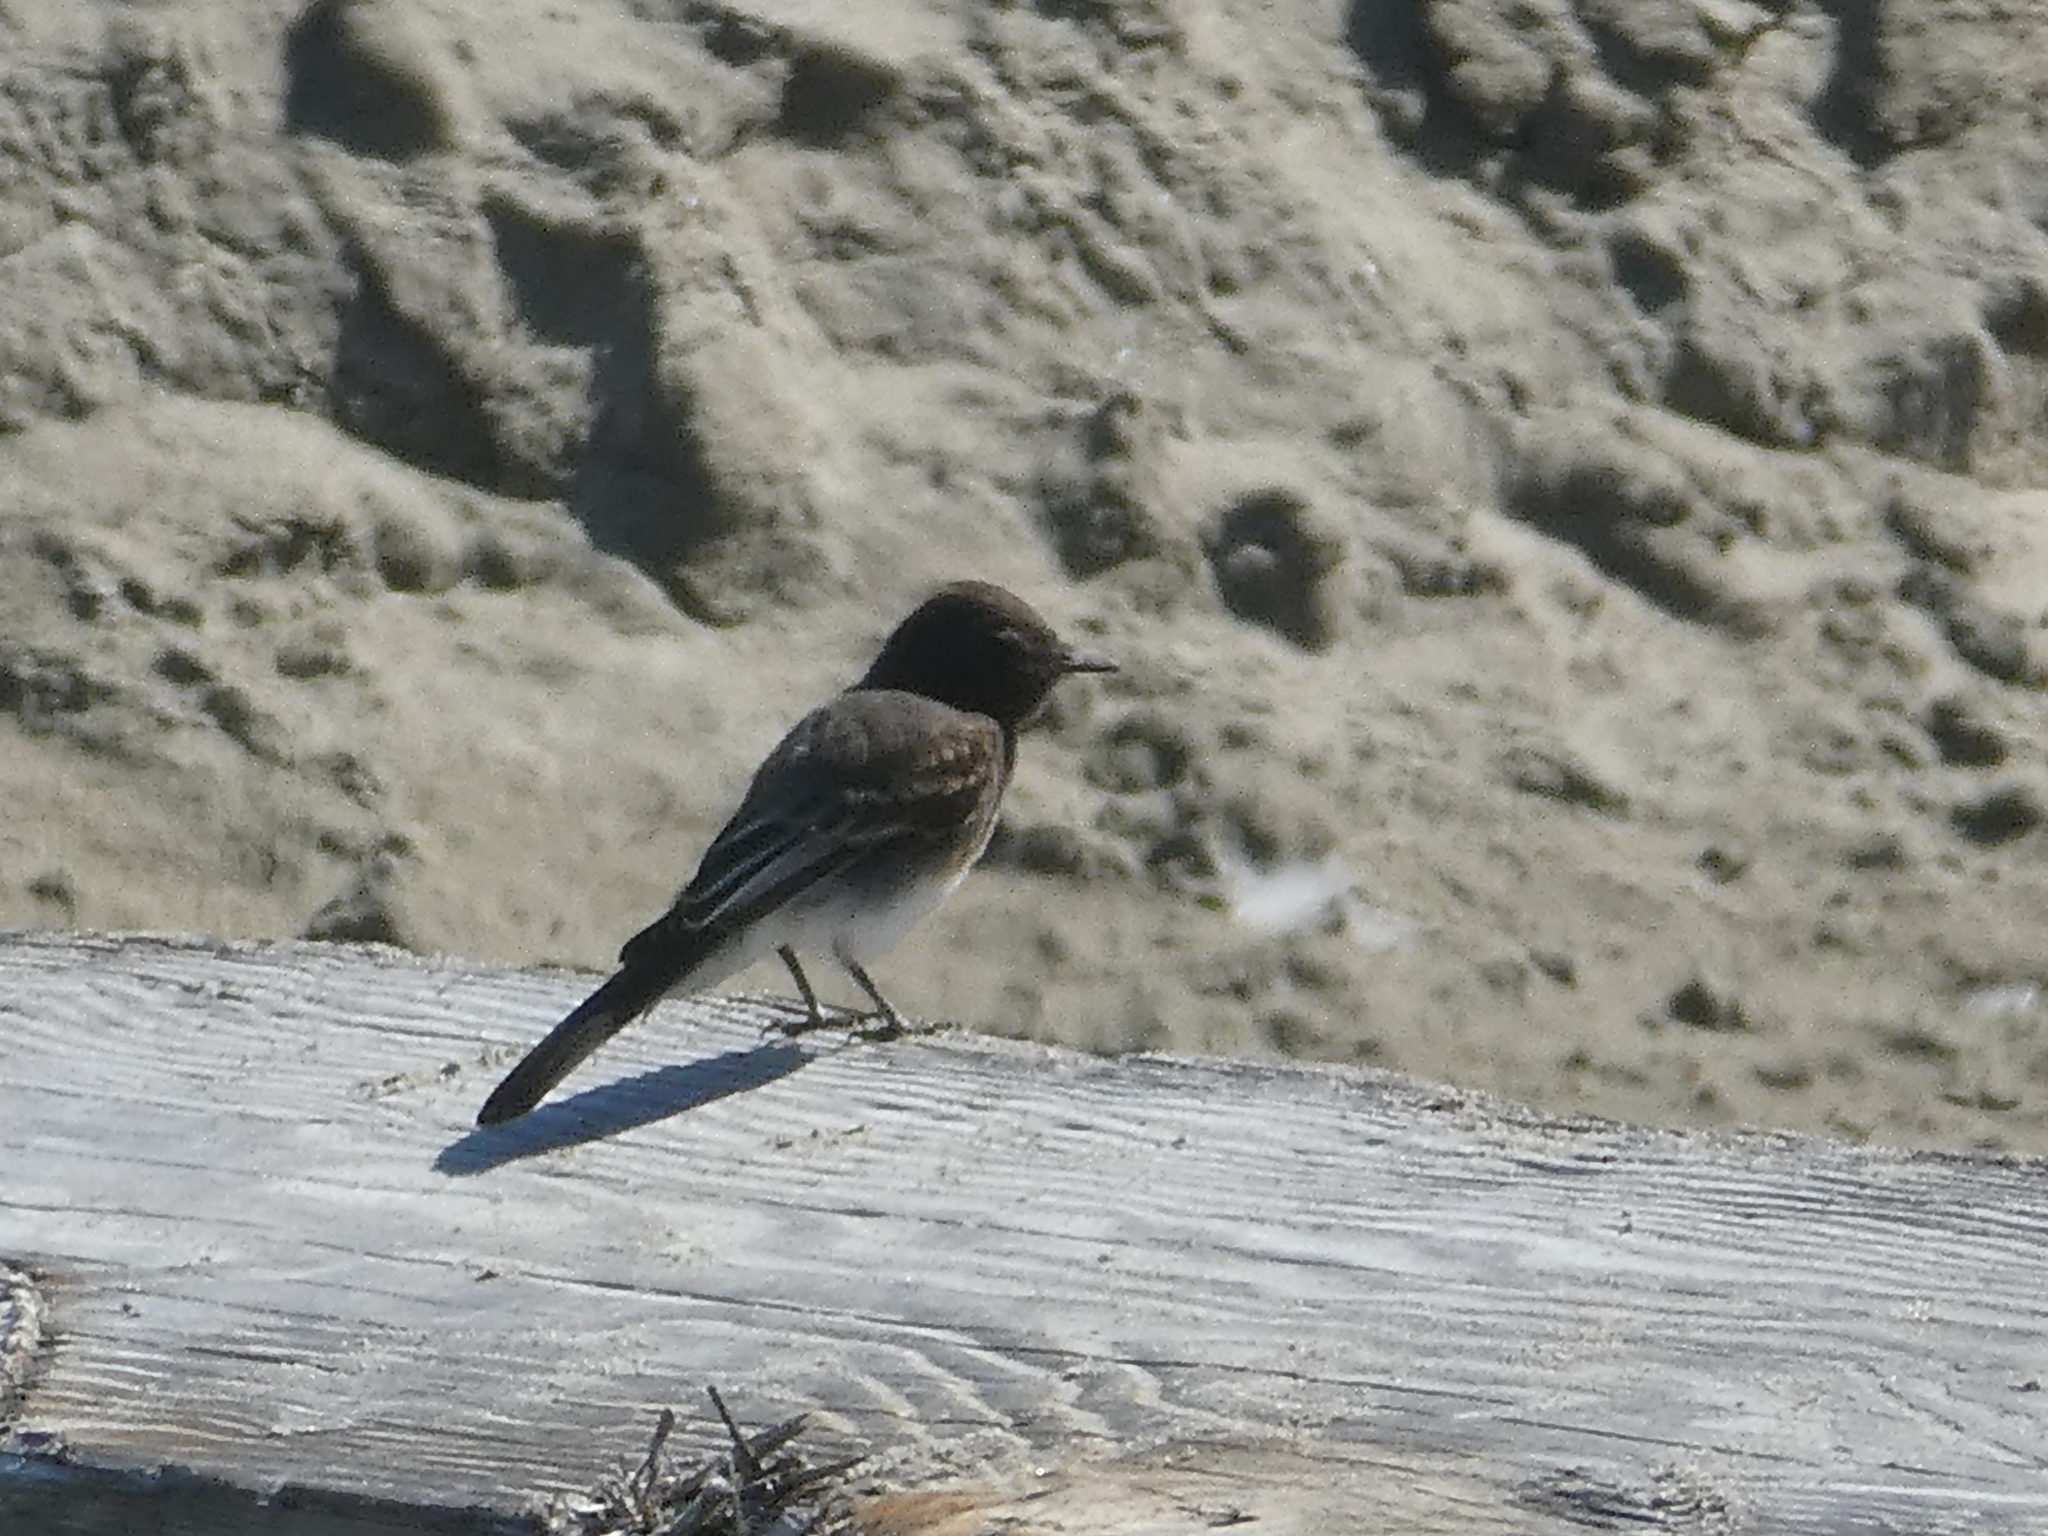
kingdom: Animalia
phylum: Chordata
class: Aves
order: Passeriformes
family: Tyrannidae
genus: Sayornis
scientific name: Sayornis nigricans
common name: Black phoebe
